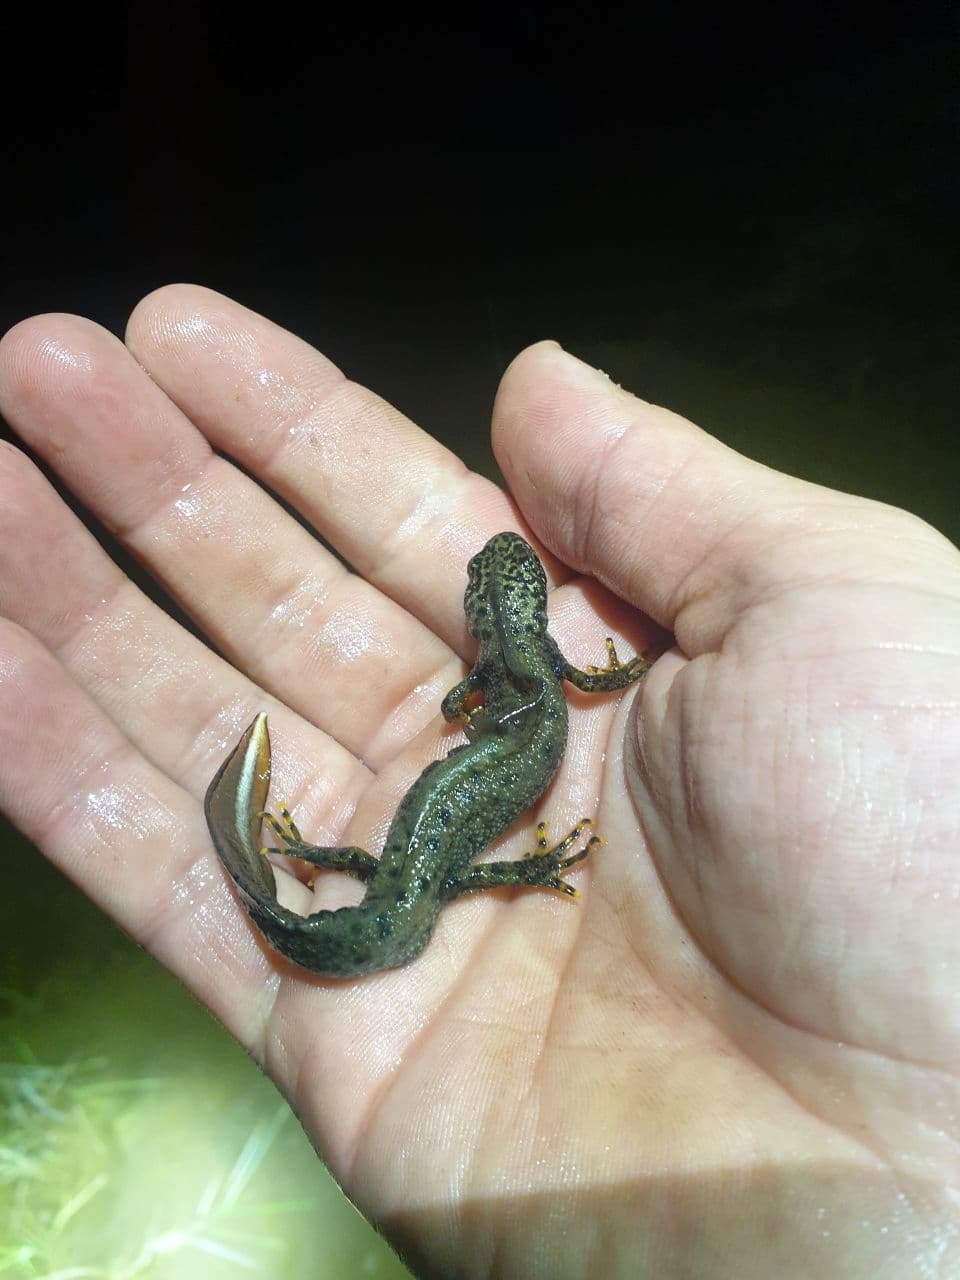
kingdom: Animalia
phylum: Chordata
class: Amphibia
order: Caudata
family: Salamandridae
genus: Triturus
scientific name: Triturus cristatus
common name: Crested newt
